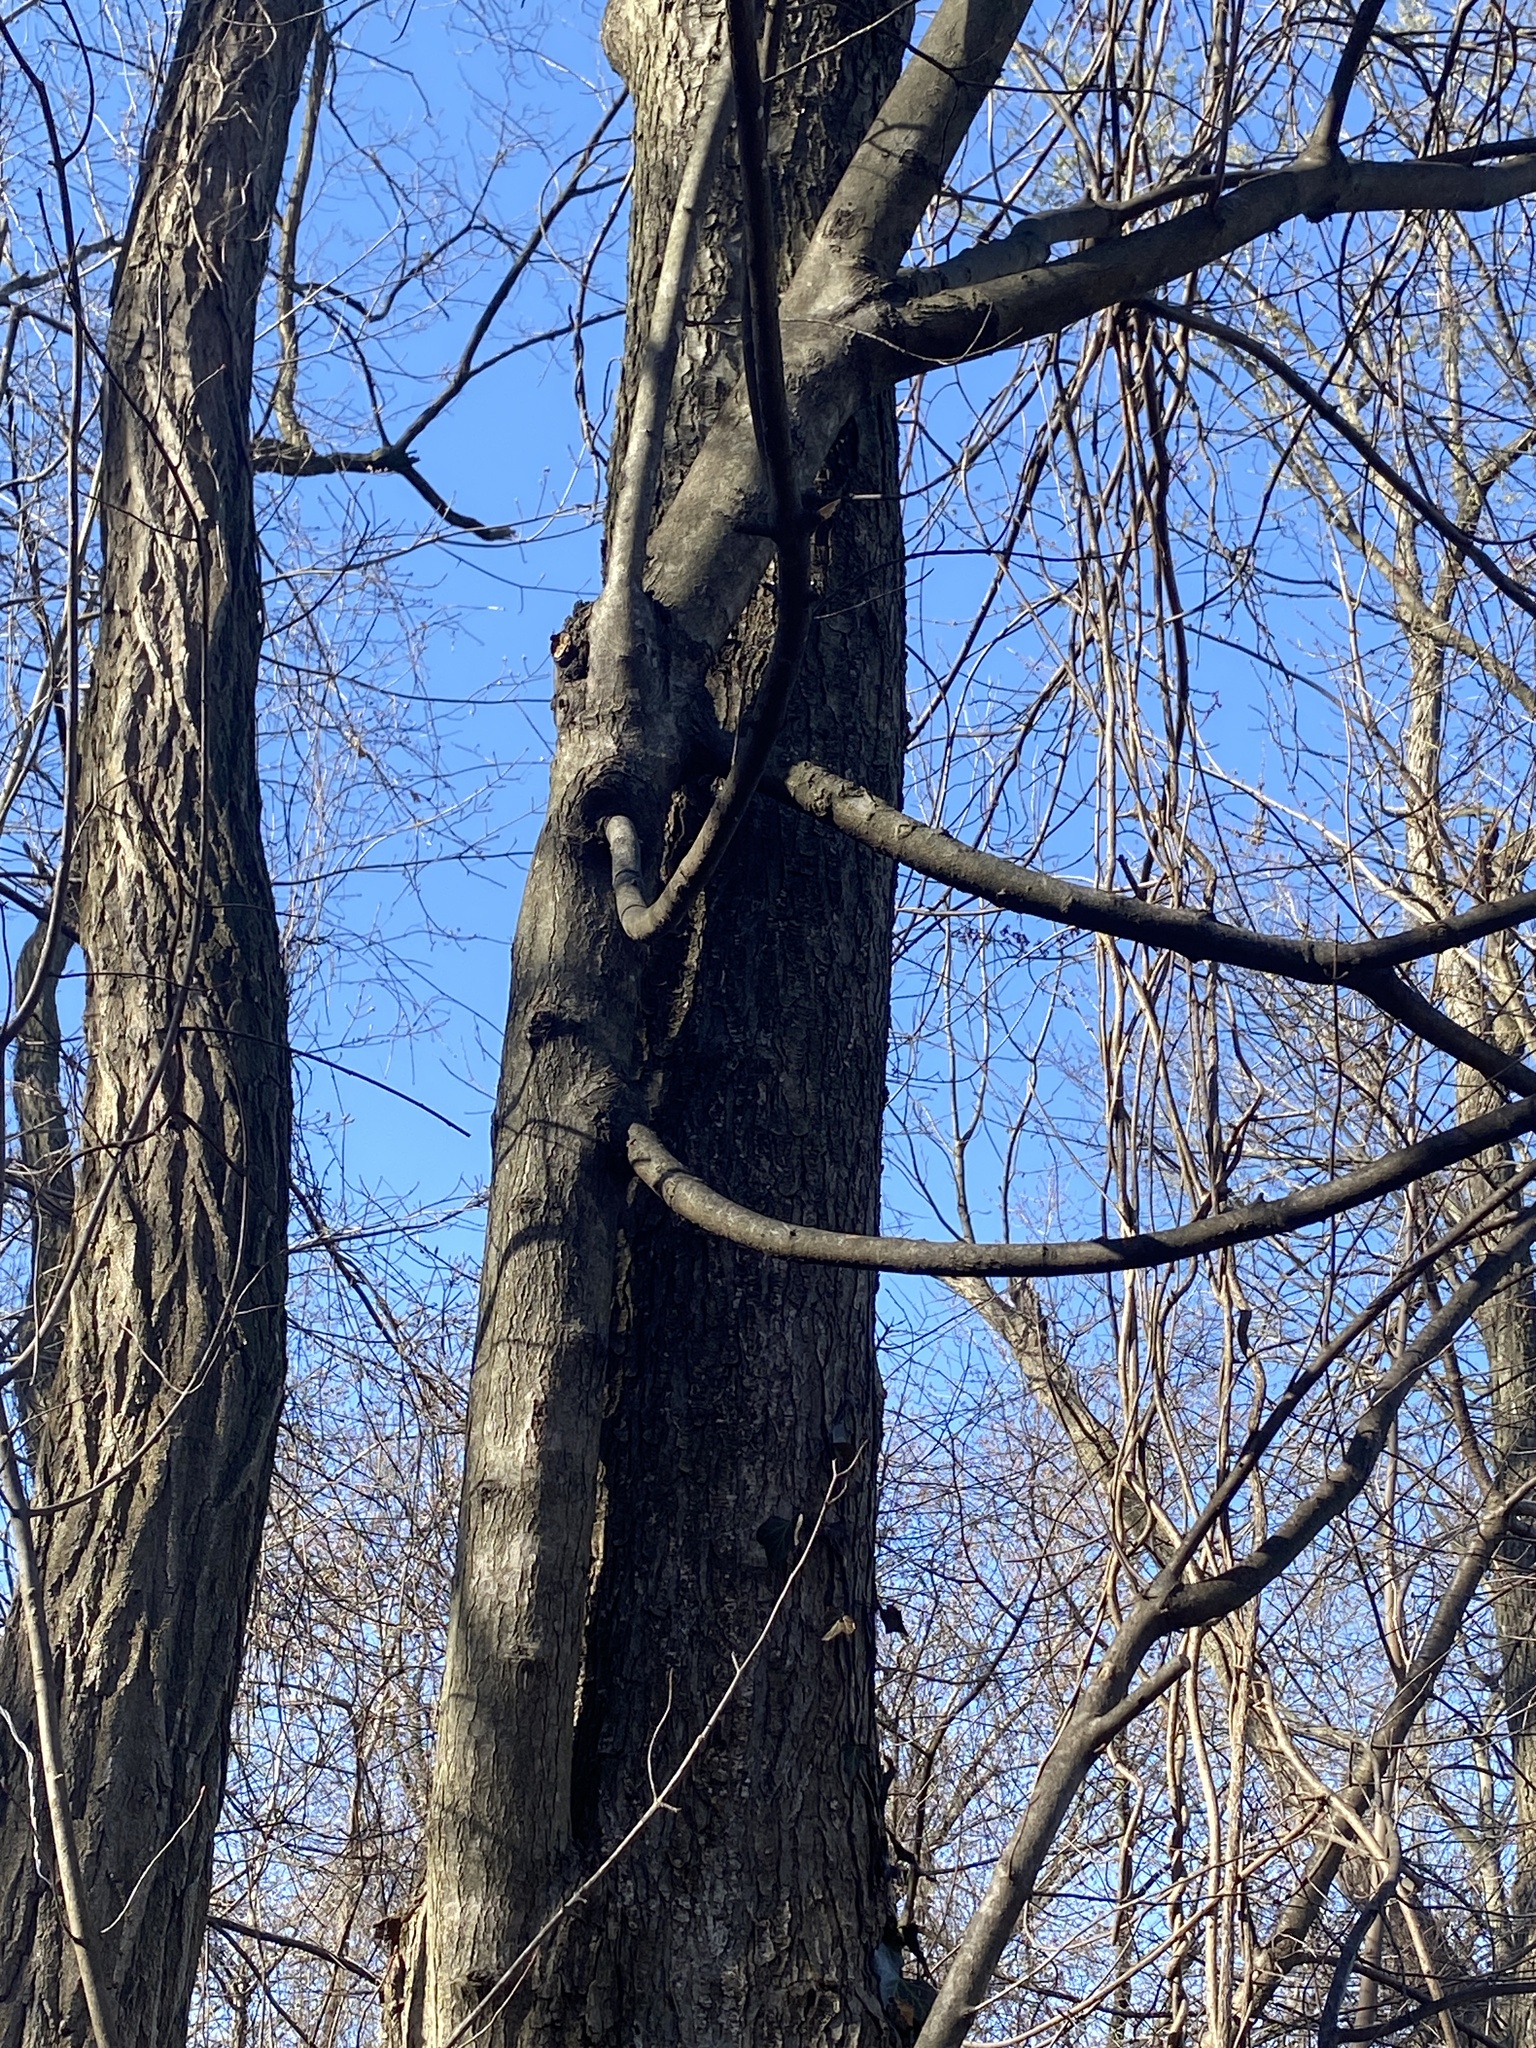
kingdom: Plantae
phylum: Tracheophyta
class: Magnoliopsida
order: Sapindales
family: Sapindaceae
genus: Acer
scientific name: Acer rubrum
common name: Red maple
